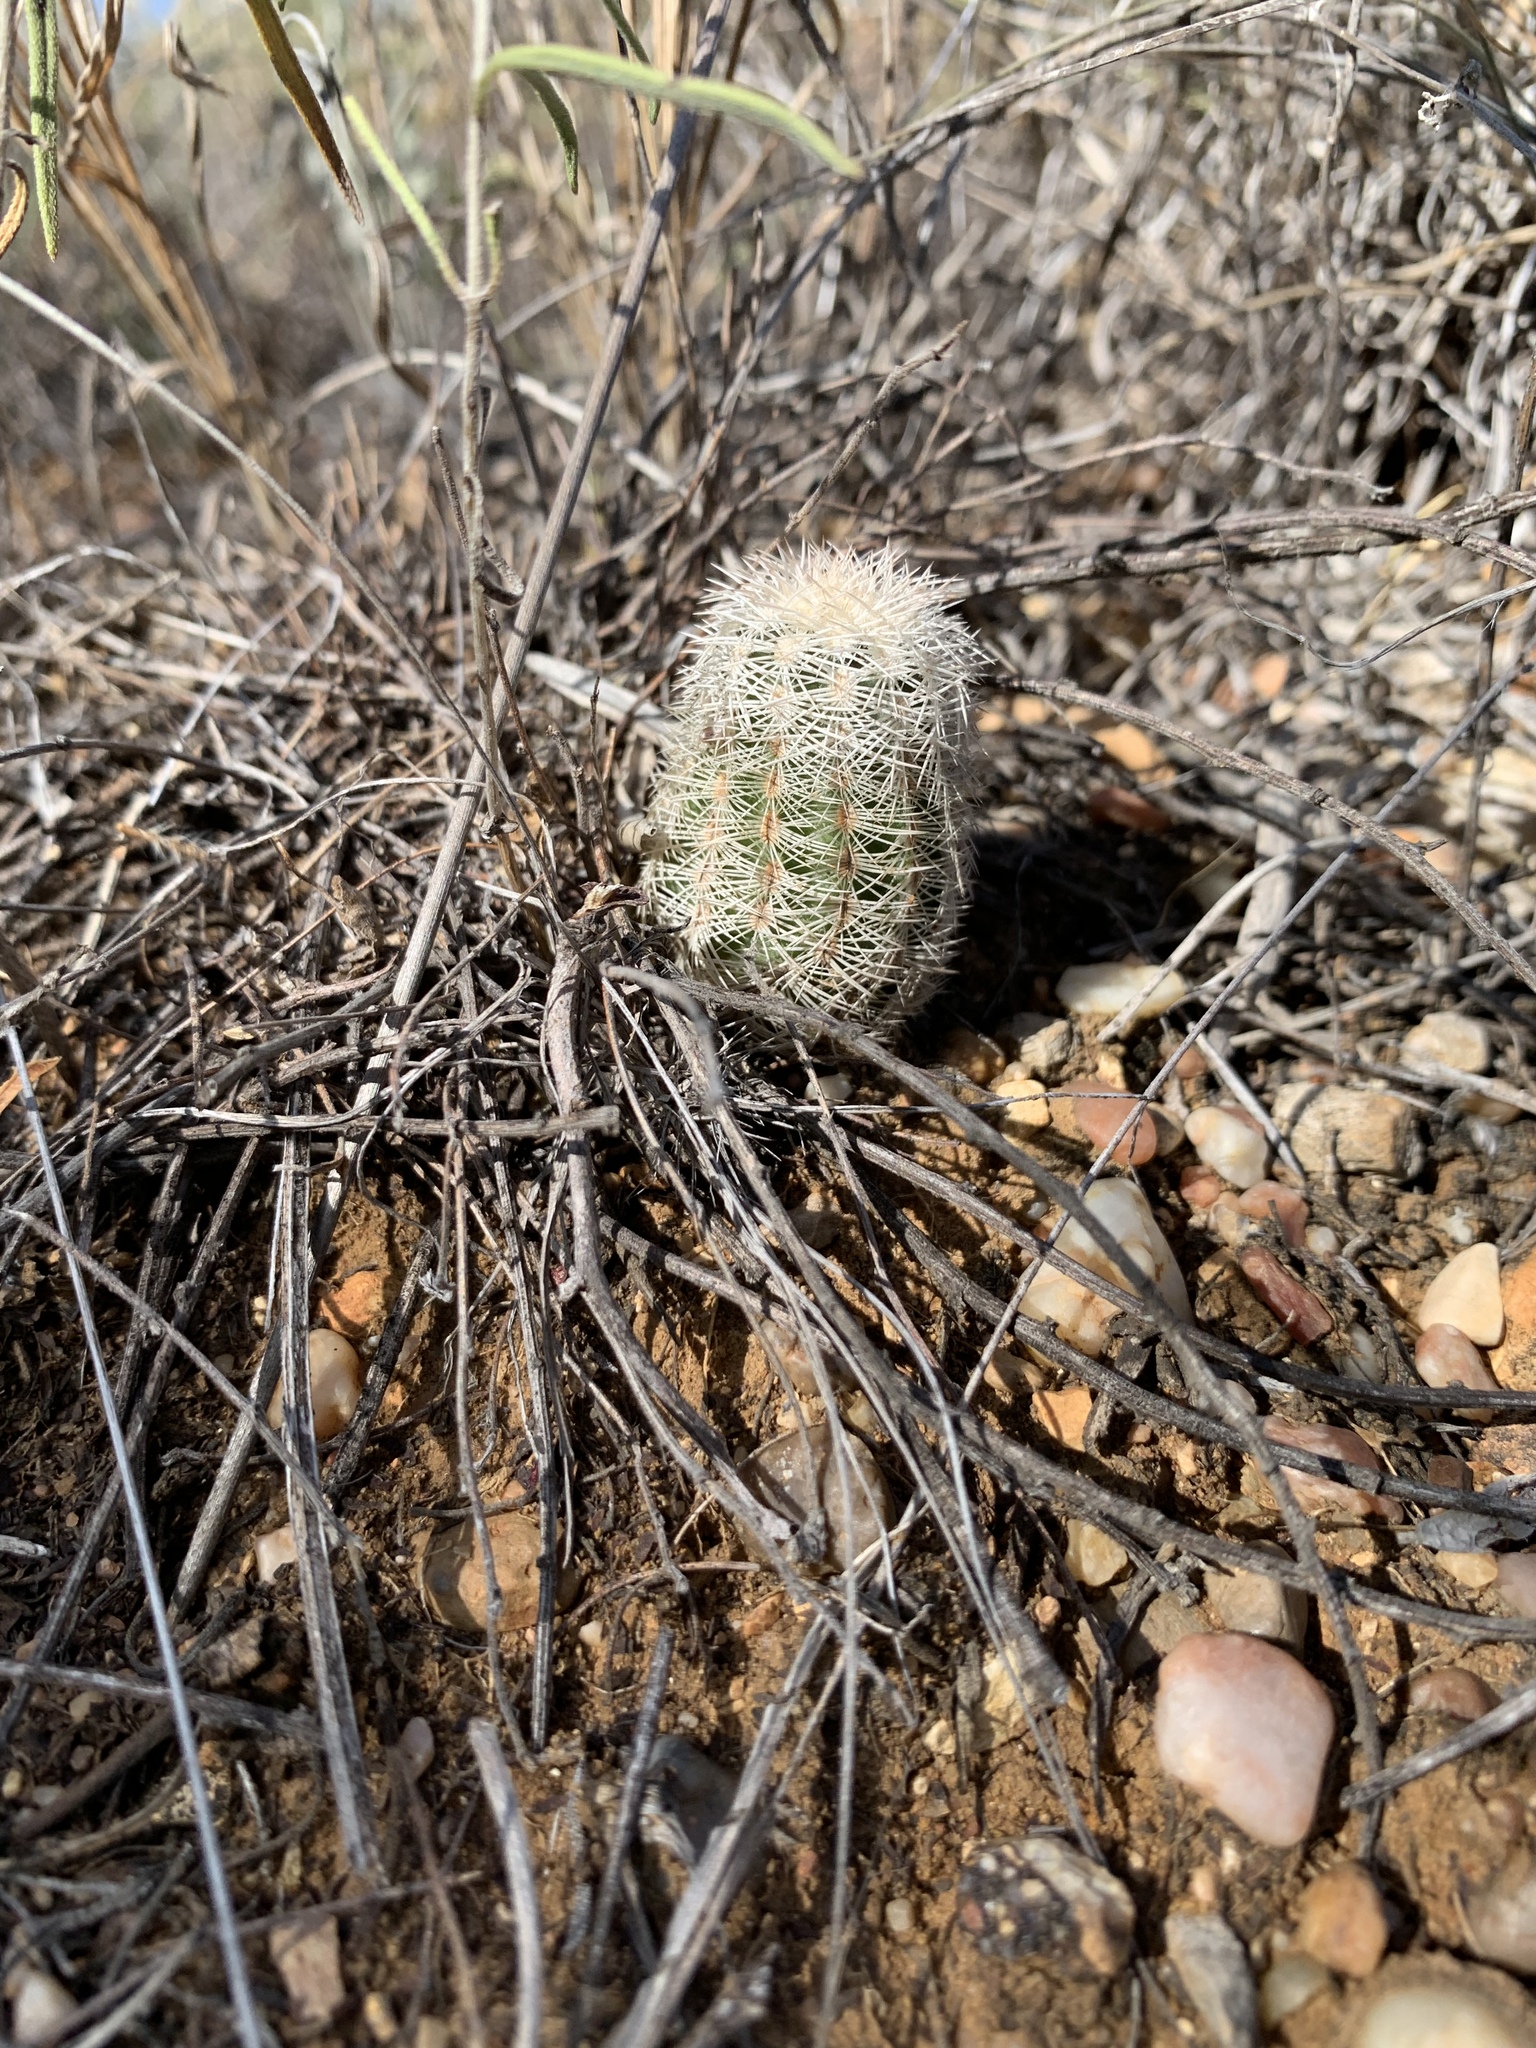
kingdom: Plantae
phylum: Tracheophyta
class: Magnoliopsida
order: Caryophyllales
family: Cactaceae
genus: Echinocereus
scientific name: Echinocereus reichenbachii
